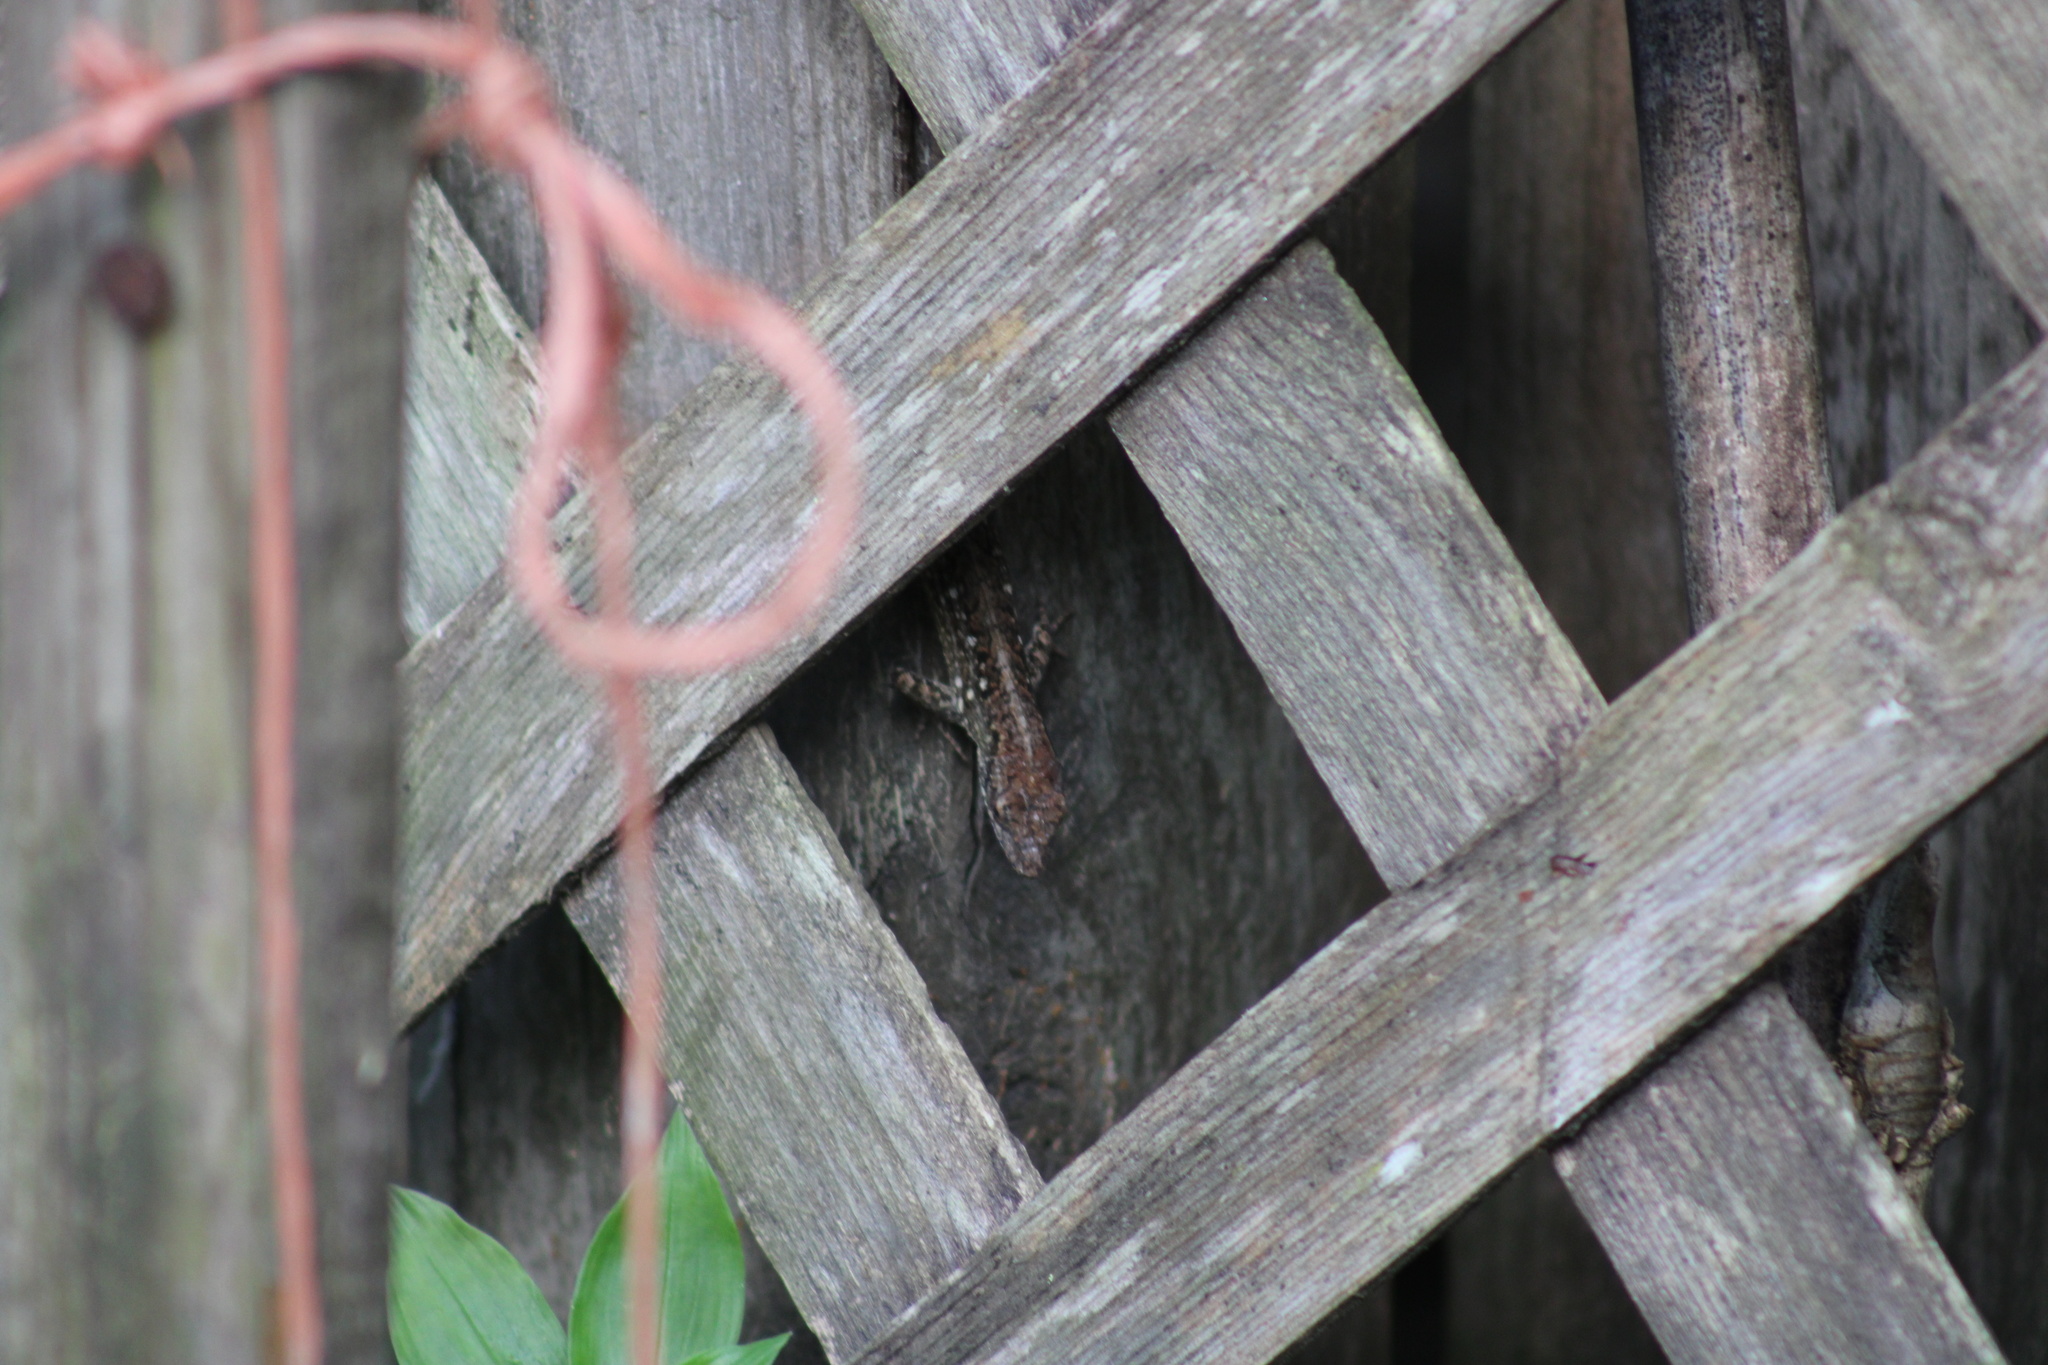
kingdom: Animalia
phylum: Chordata
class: Squamata
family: Dactyloidae
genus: Anolis
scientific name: Anolis sagrei
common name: Brown anole
